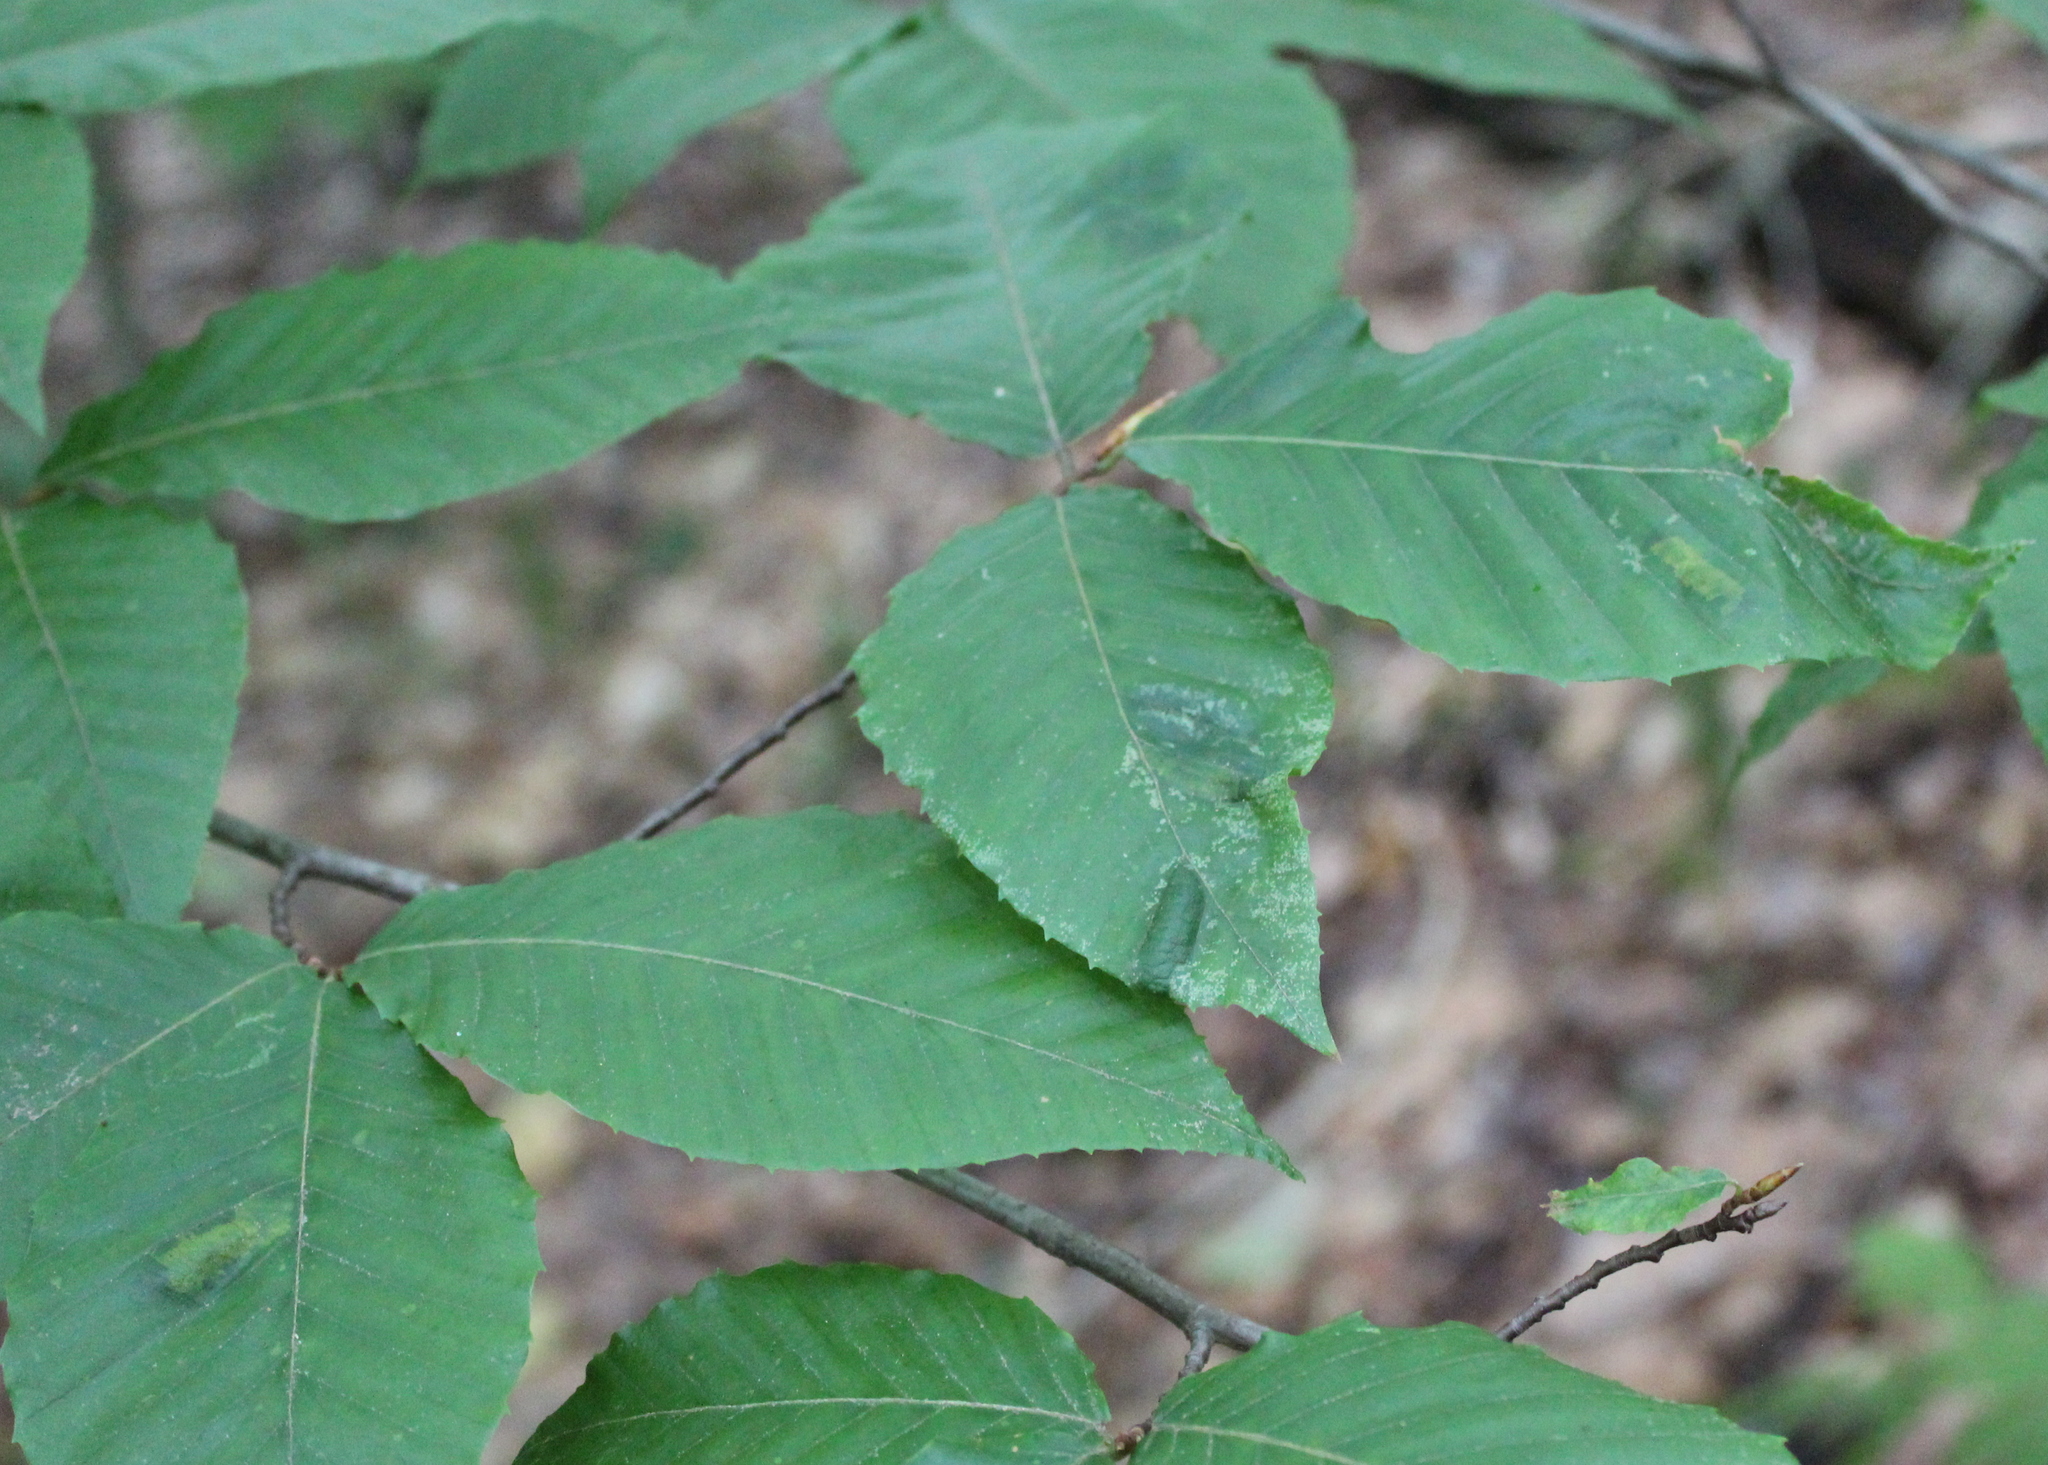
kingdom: Plantae
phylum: Tracheophyta
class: Magnoliopsida
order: Fagales
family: Fagaceae
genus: Fagus
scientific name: Fagus grandifolia
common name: American beech
